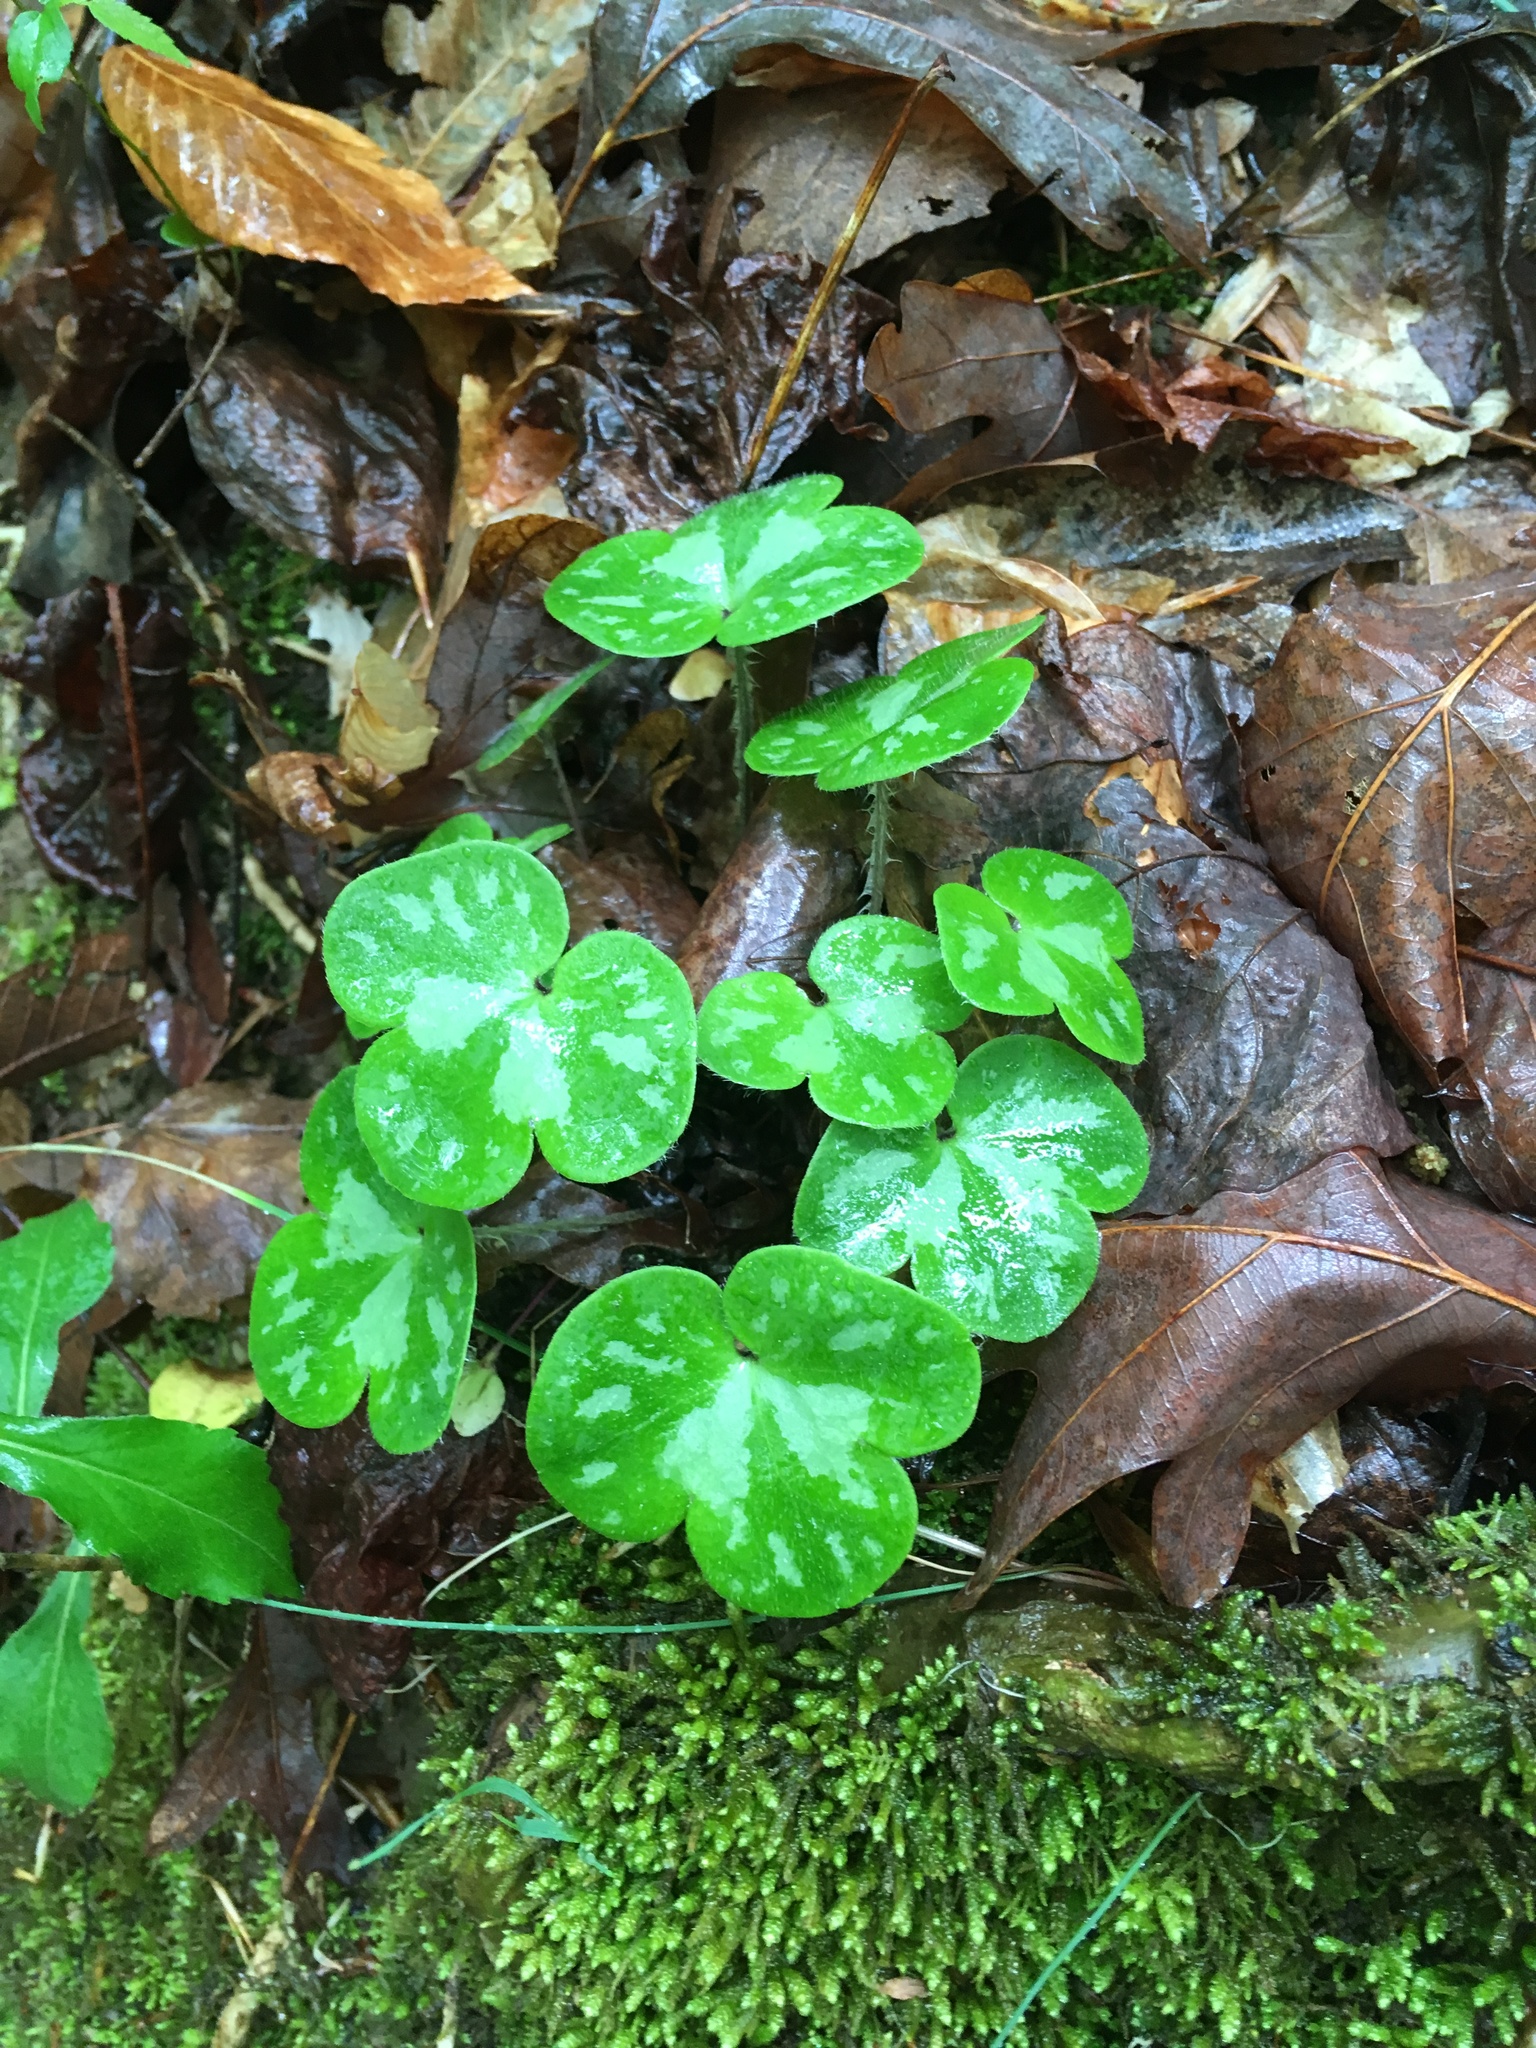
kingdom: Plantae
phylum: Tracheophyta
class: Magnoliopsida
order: Ranunculales
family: Ranunculaceae
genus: Hepatica
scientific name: Hepatica americana
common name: American hepatica
